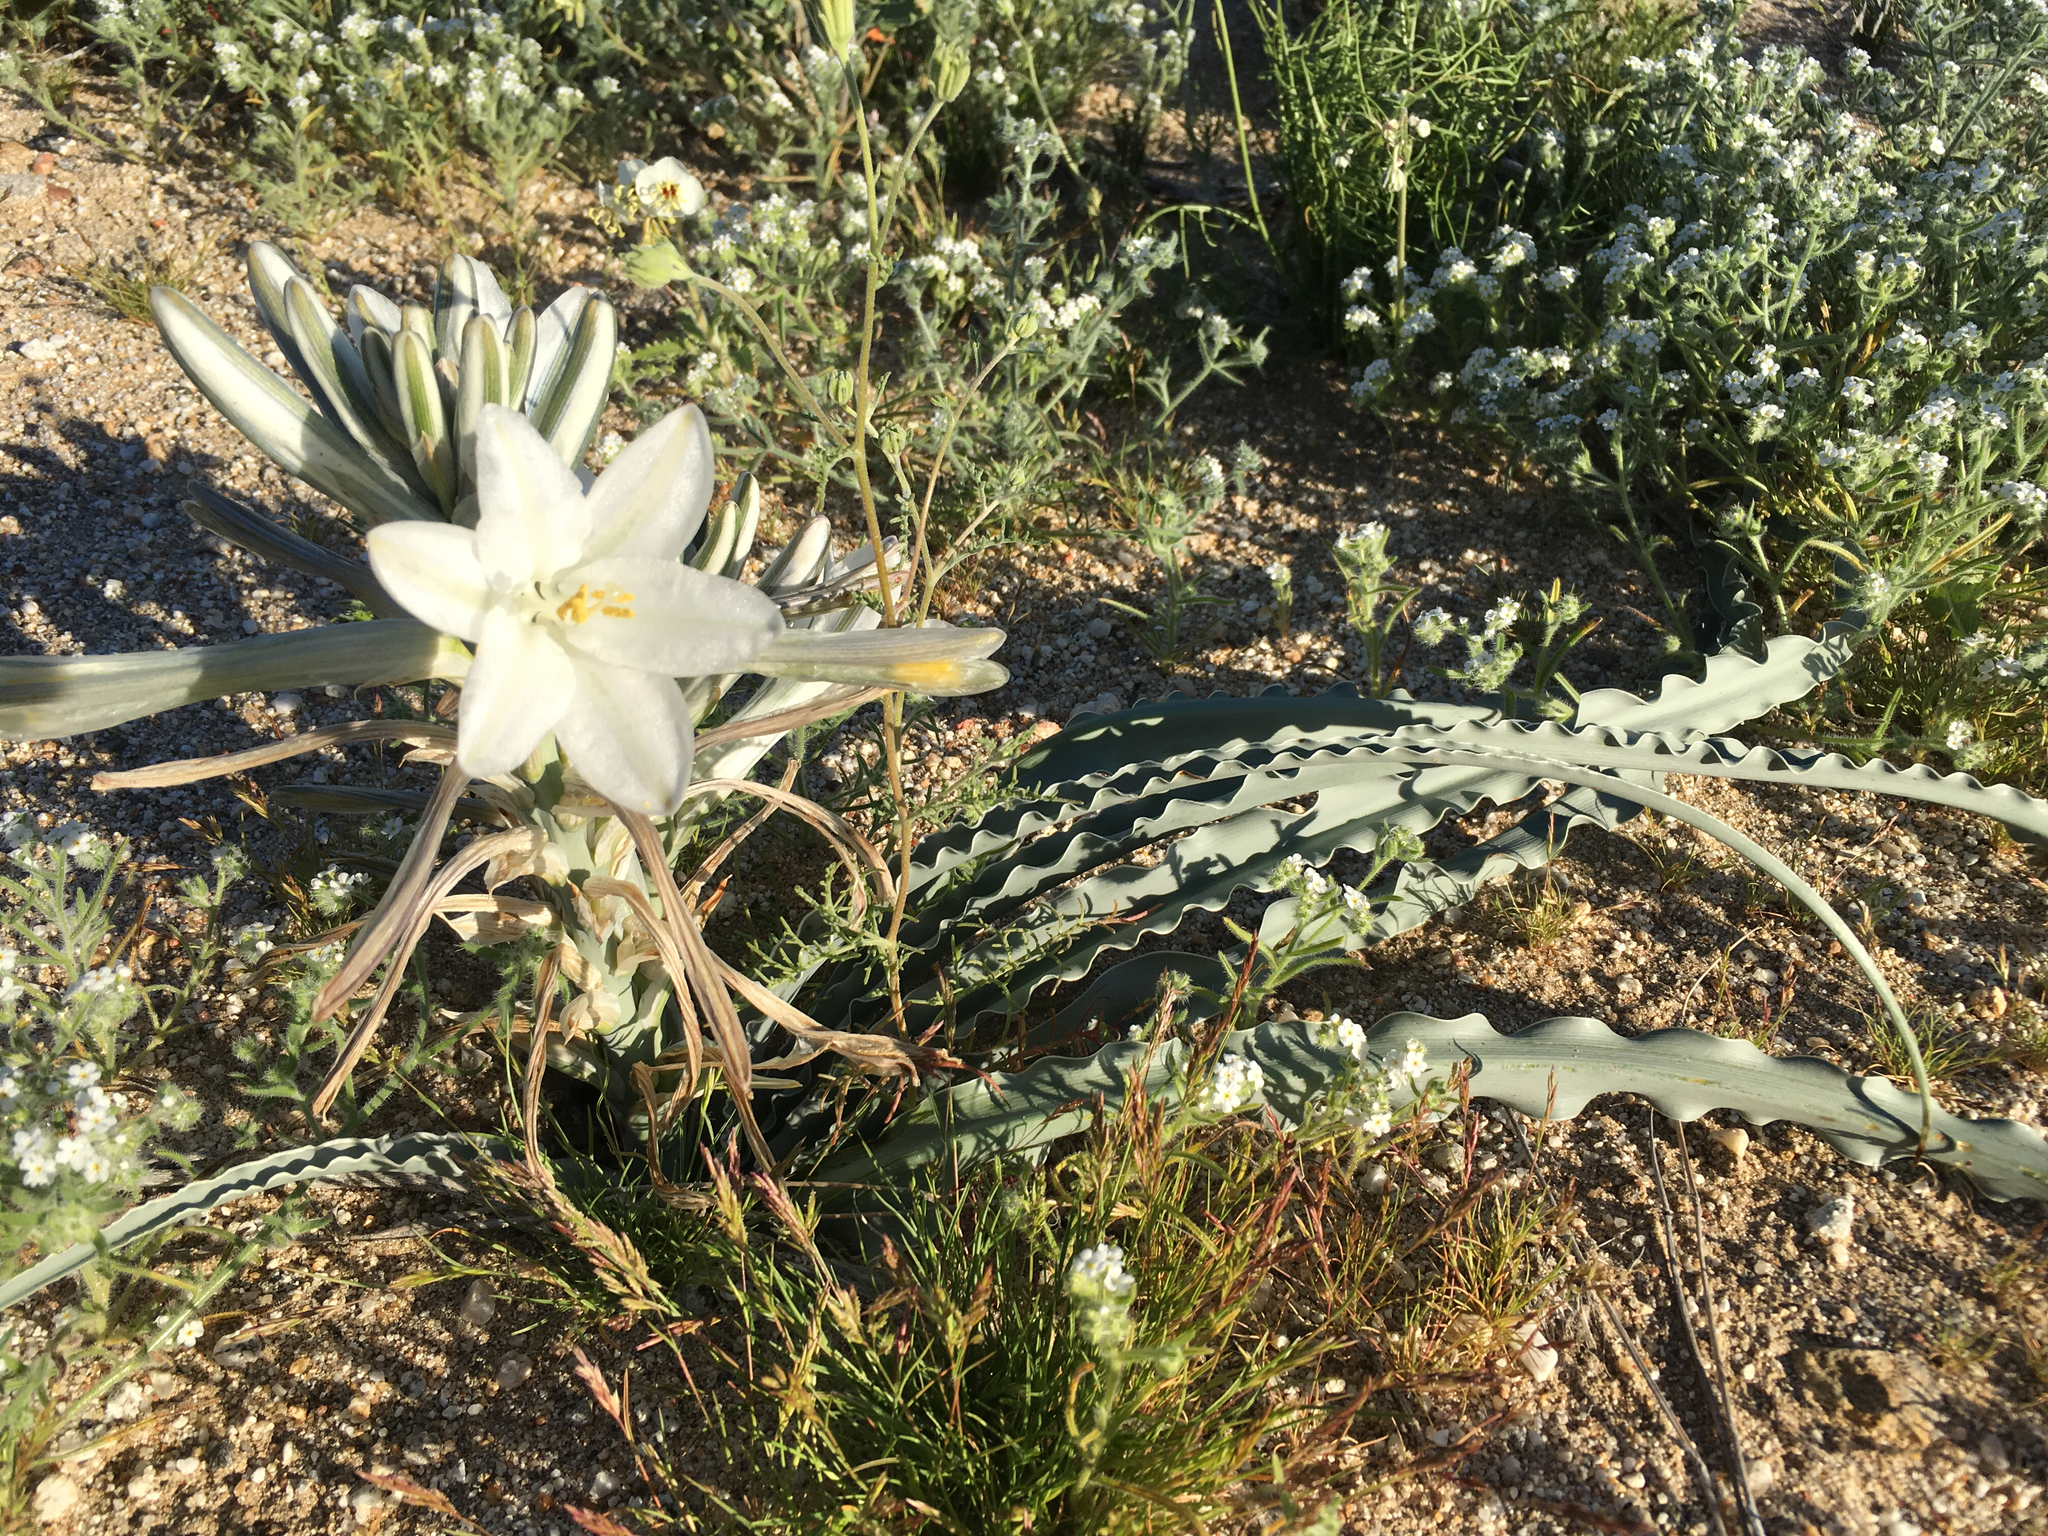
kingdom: Plantae
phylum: Tracheophyta
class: Liliopsida
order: Asparagales
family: Asparagaceae
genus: Hesperocallis
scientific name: Hesperocallis undulata
